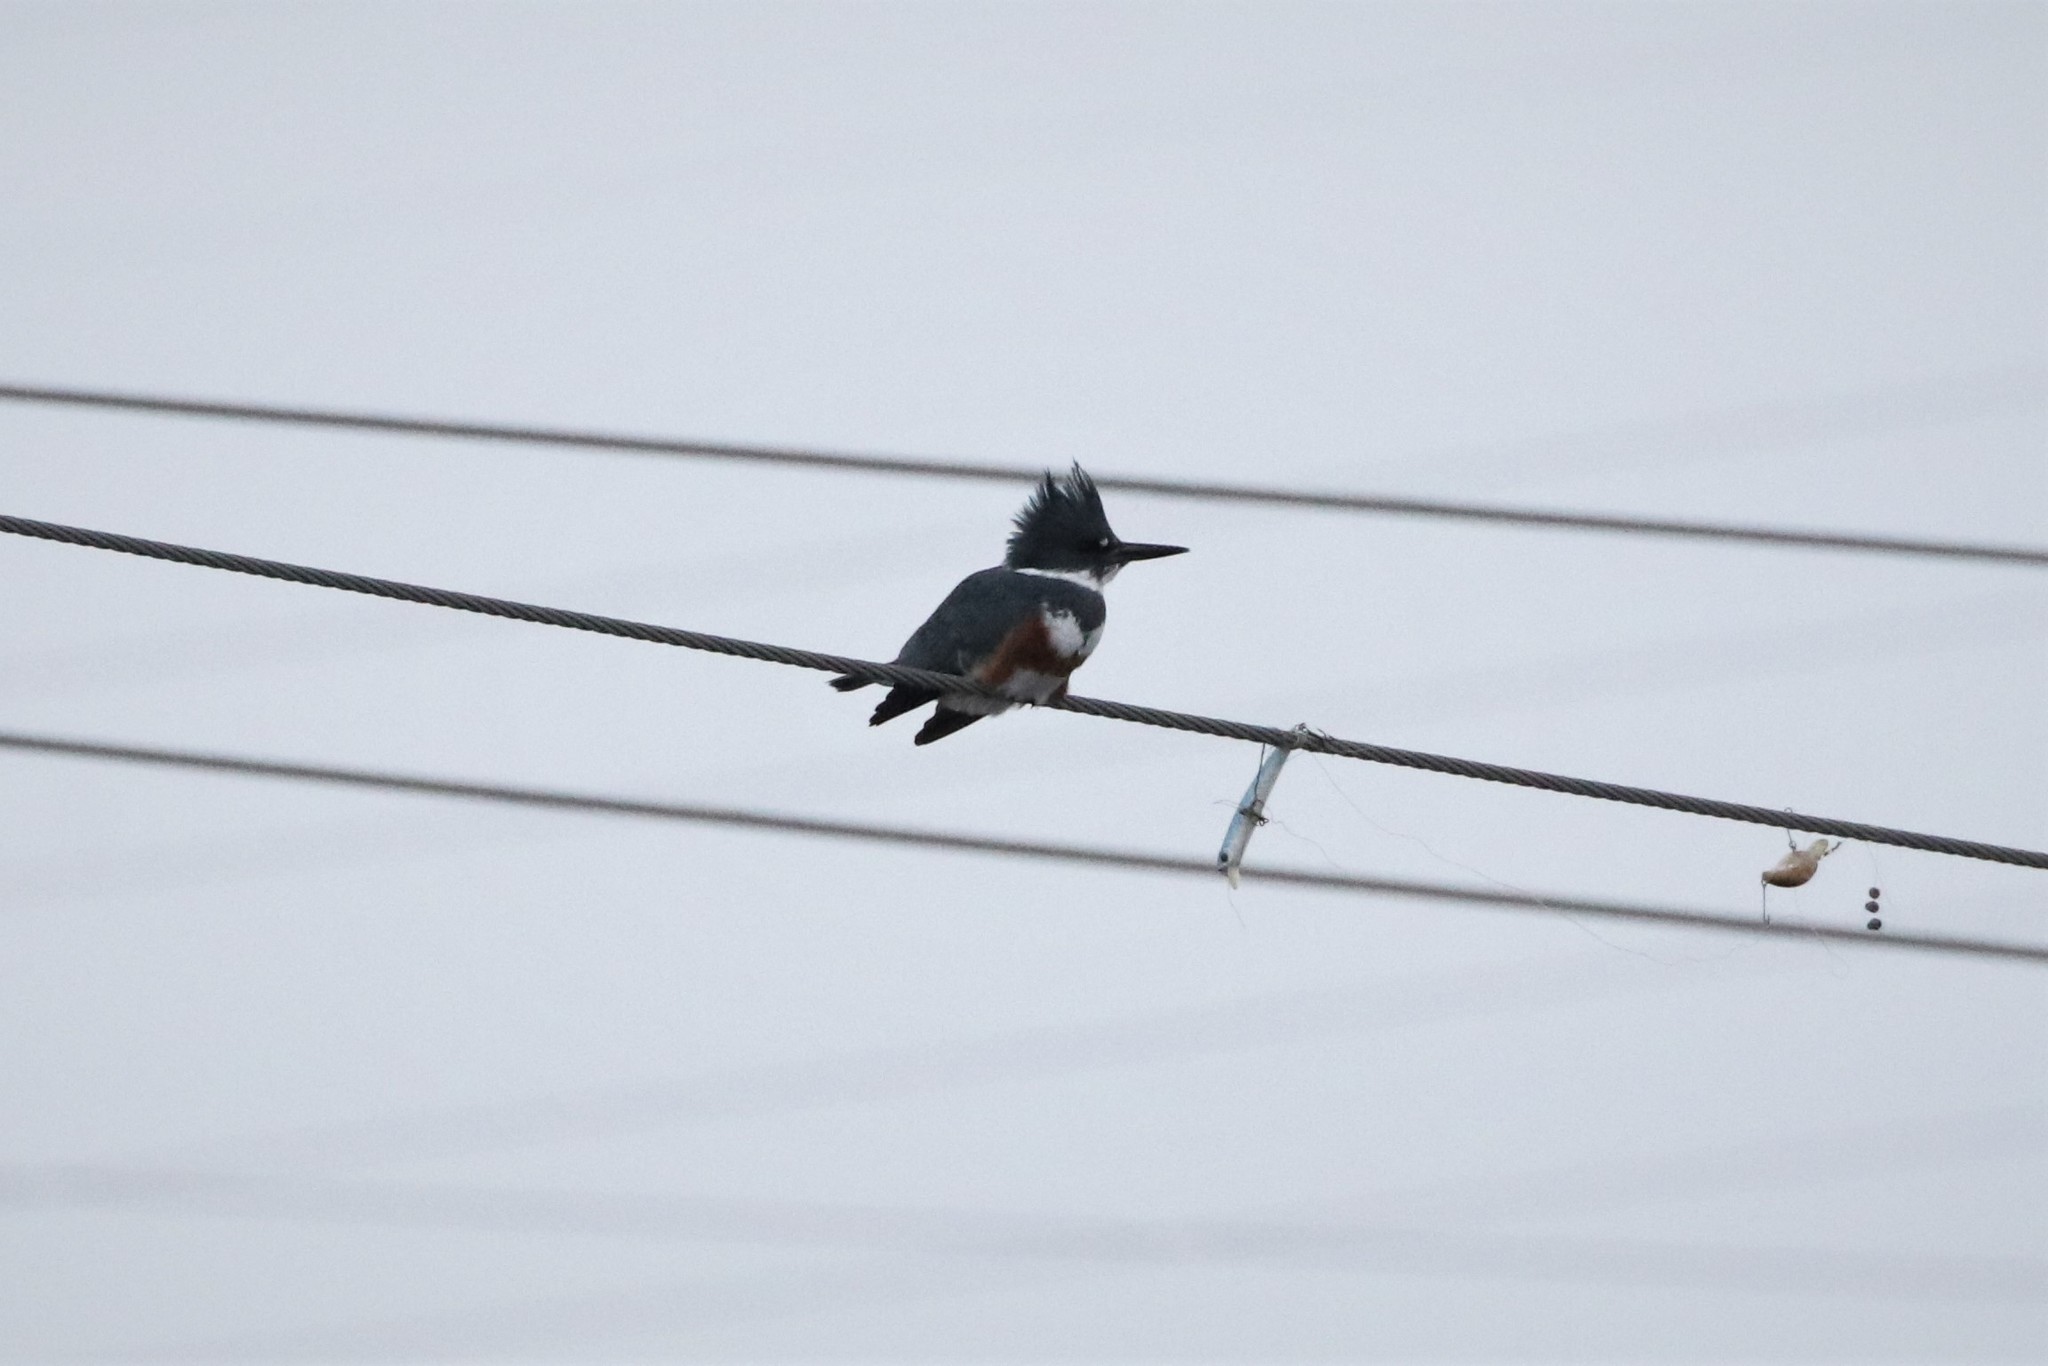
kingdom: Animalia
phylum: Chordata
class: Aves
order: Coraciiformes
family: Alcedinidae
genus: Megaceryle
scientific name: Megaceryle alcyon
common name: Belted kingfisher
